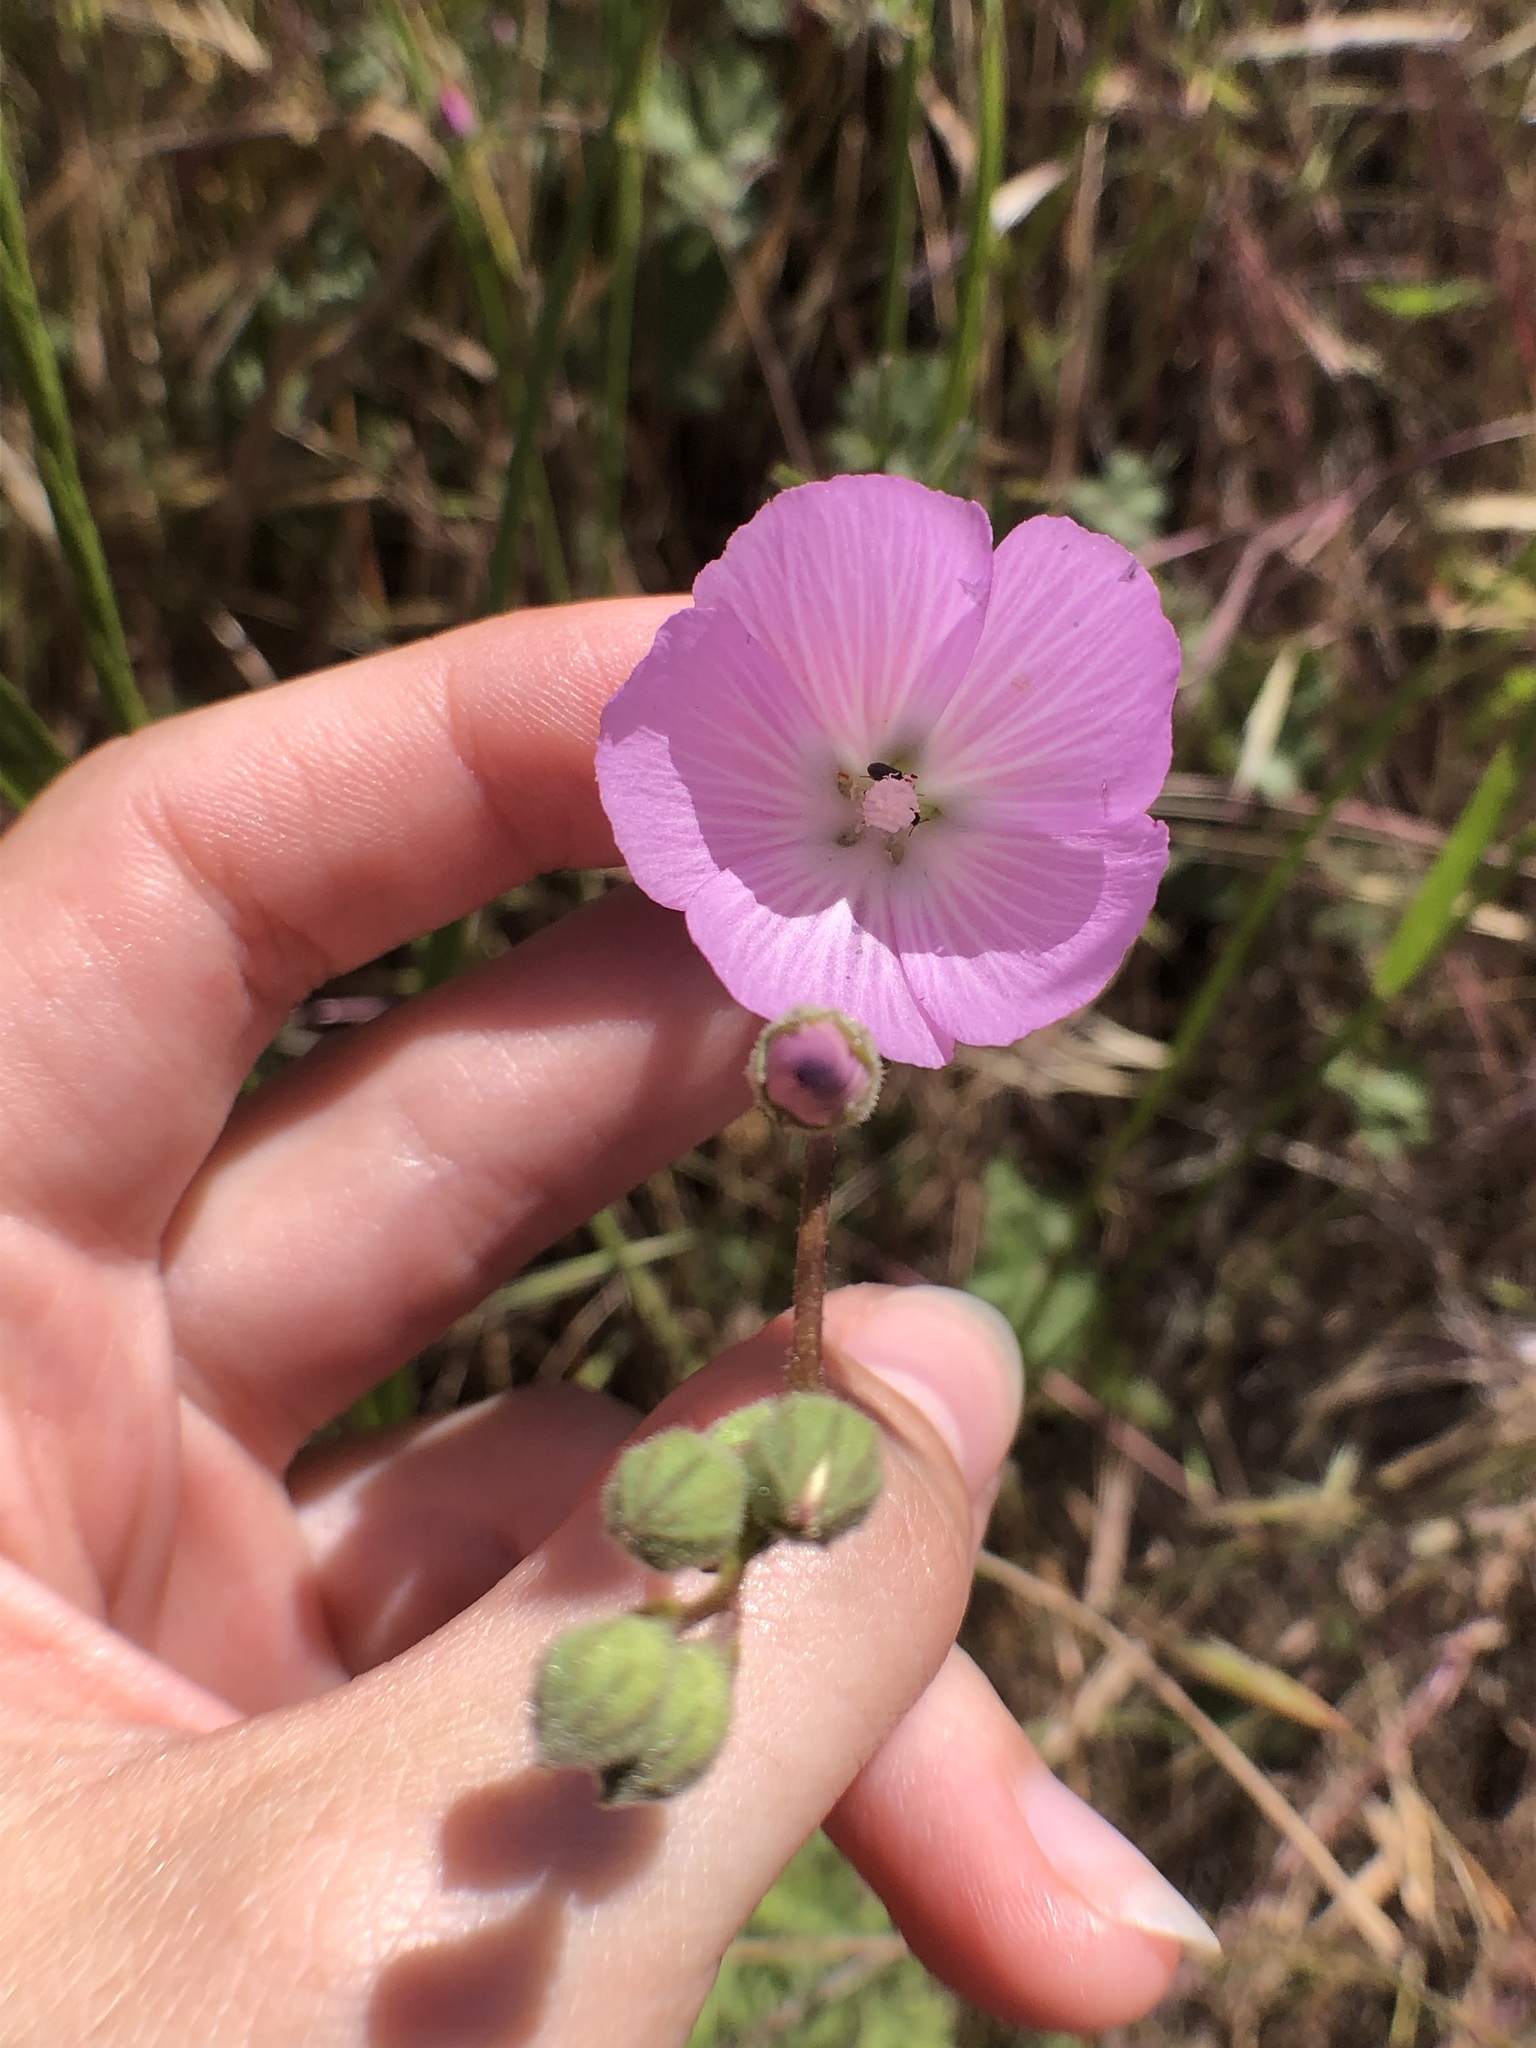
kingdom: Plantae
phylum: Tracheophyta
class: Magnoliopsida
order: Malvales
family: Malvaceae
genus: Sidalcea
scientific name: Sidalcea sparsifolia
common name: Southern checkerbloom
